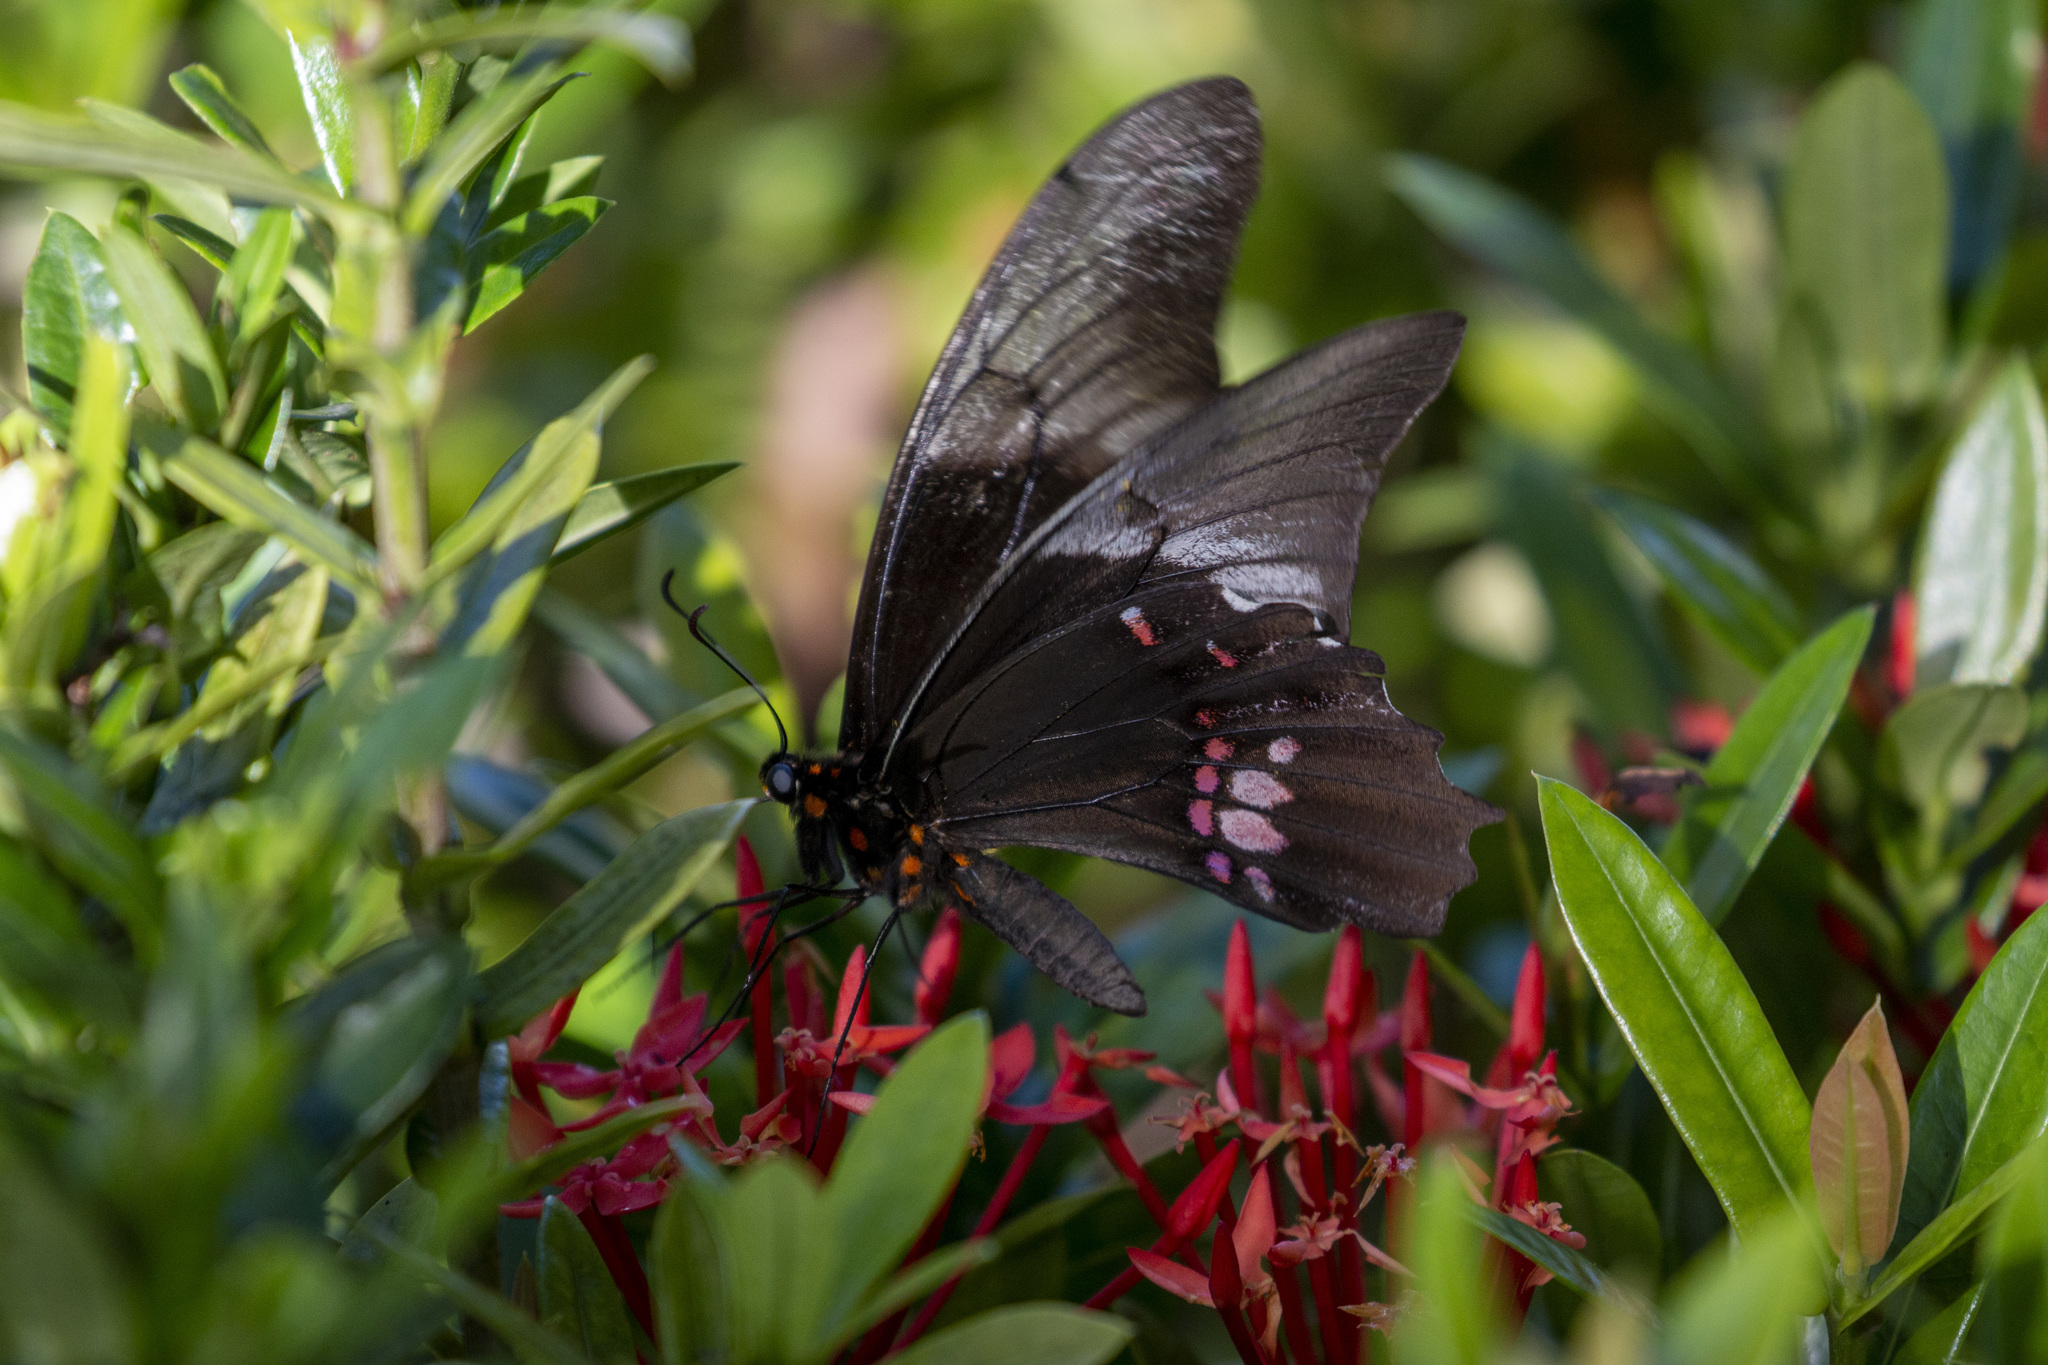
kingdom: Animalia
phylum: Arthropoda
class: Insecta
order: Lepidoptera
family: Papilionidae
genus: Papilio
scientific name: Papilio anchisiades
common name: Idaes swallowtail
